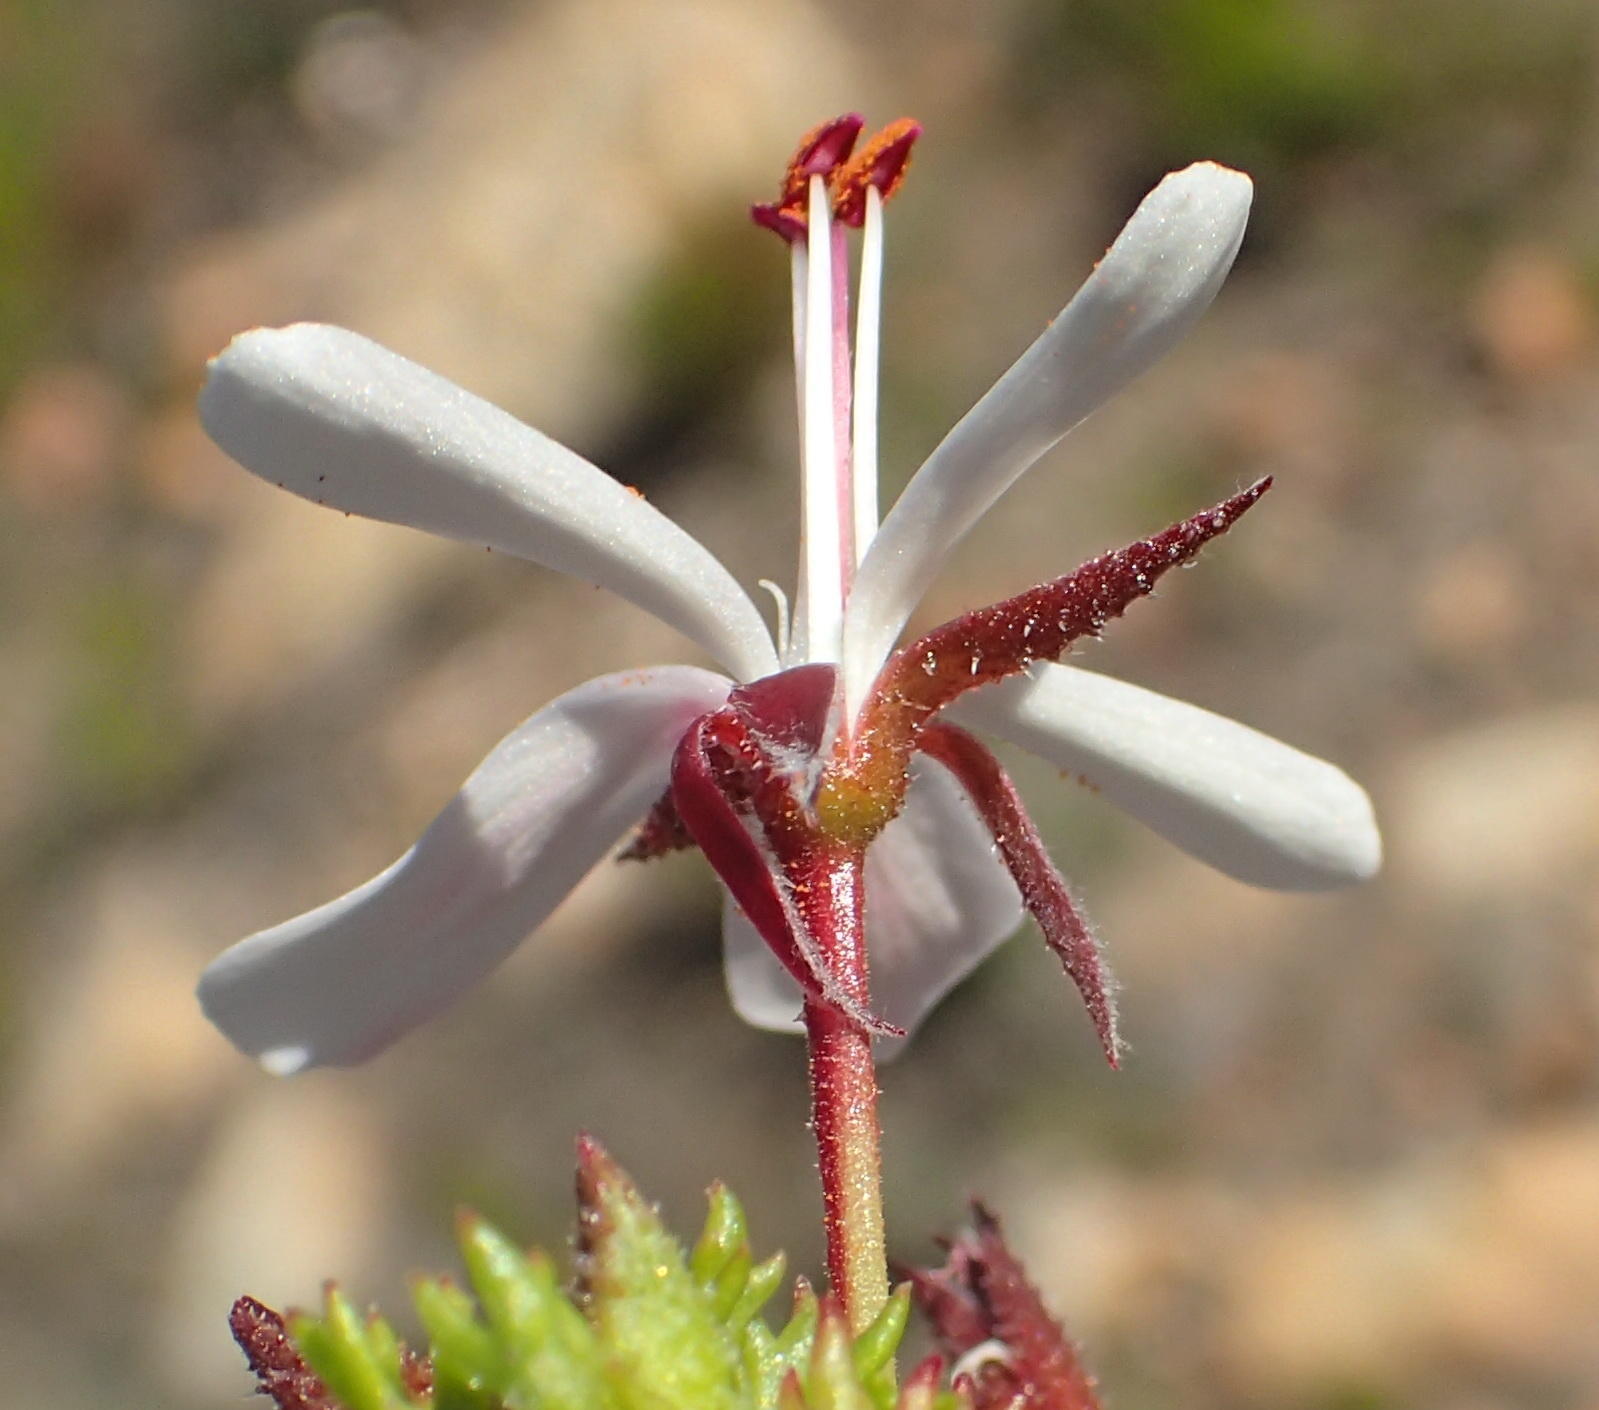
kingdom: Plantae
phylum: Tracheophyta
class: Magnoliopsida
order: Geraniales
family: Geraniaceae
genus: Pelargonium
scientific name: Pelargonium fruticosum
